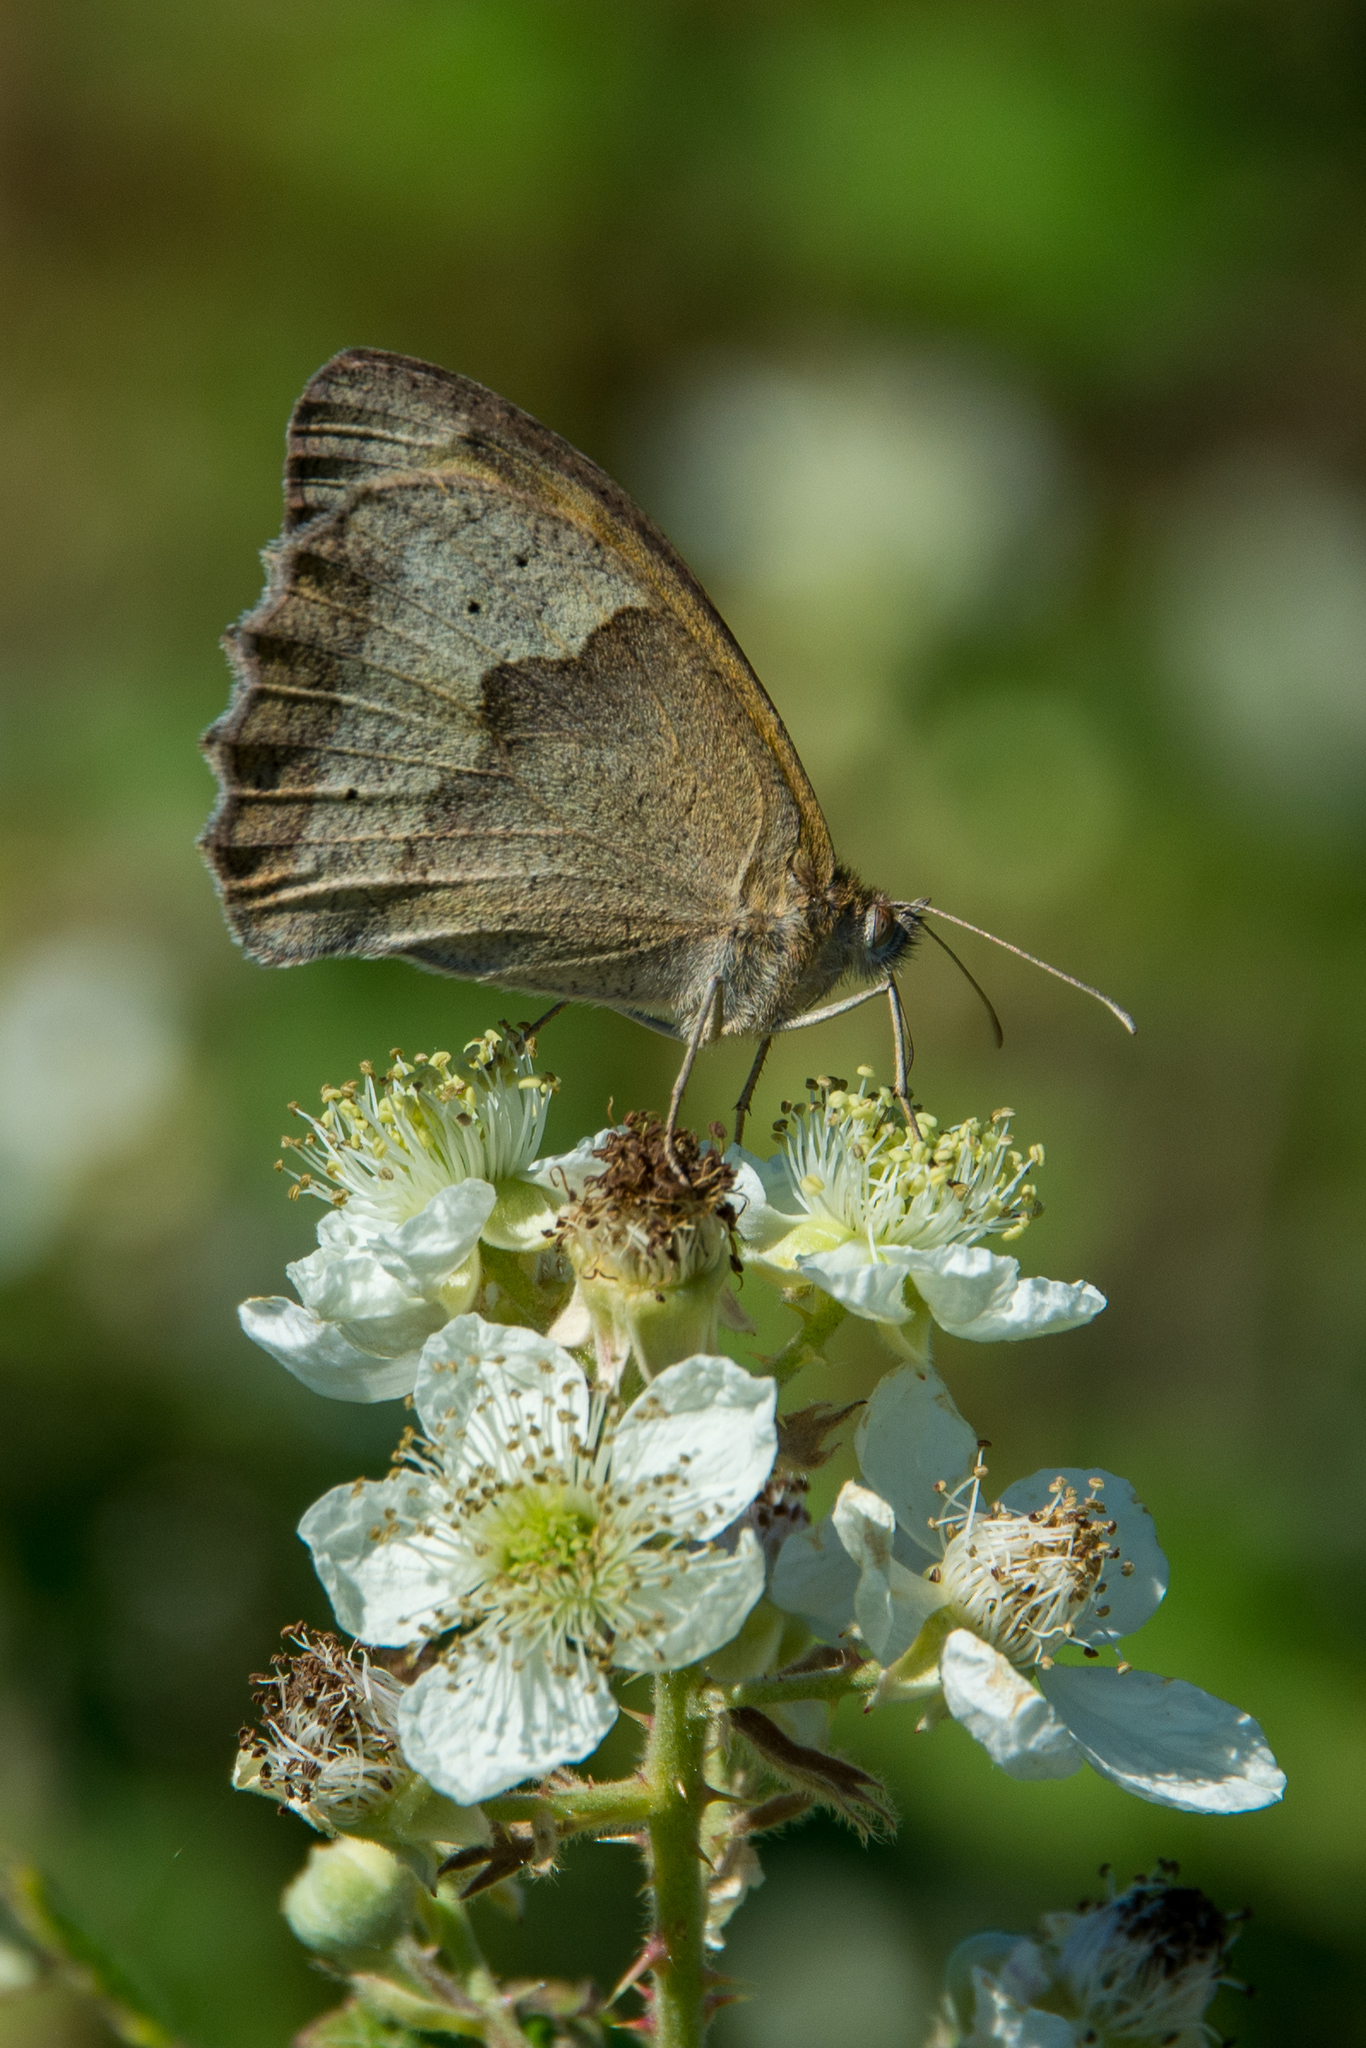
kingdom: Animalia
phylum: Arthropoda
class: Insecta
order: Lepidoptera
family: Nymphalidae
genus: Maniola
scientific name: Maniola jurtina
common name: Meadow brown
